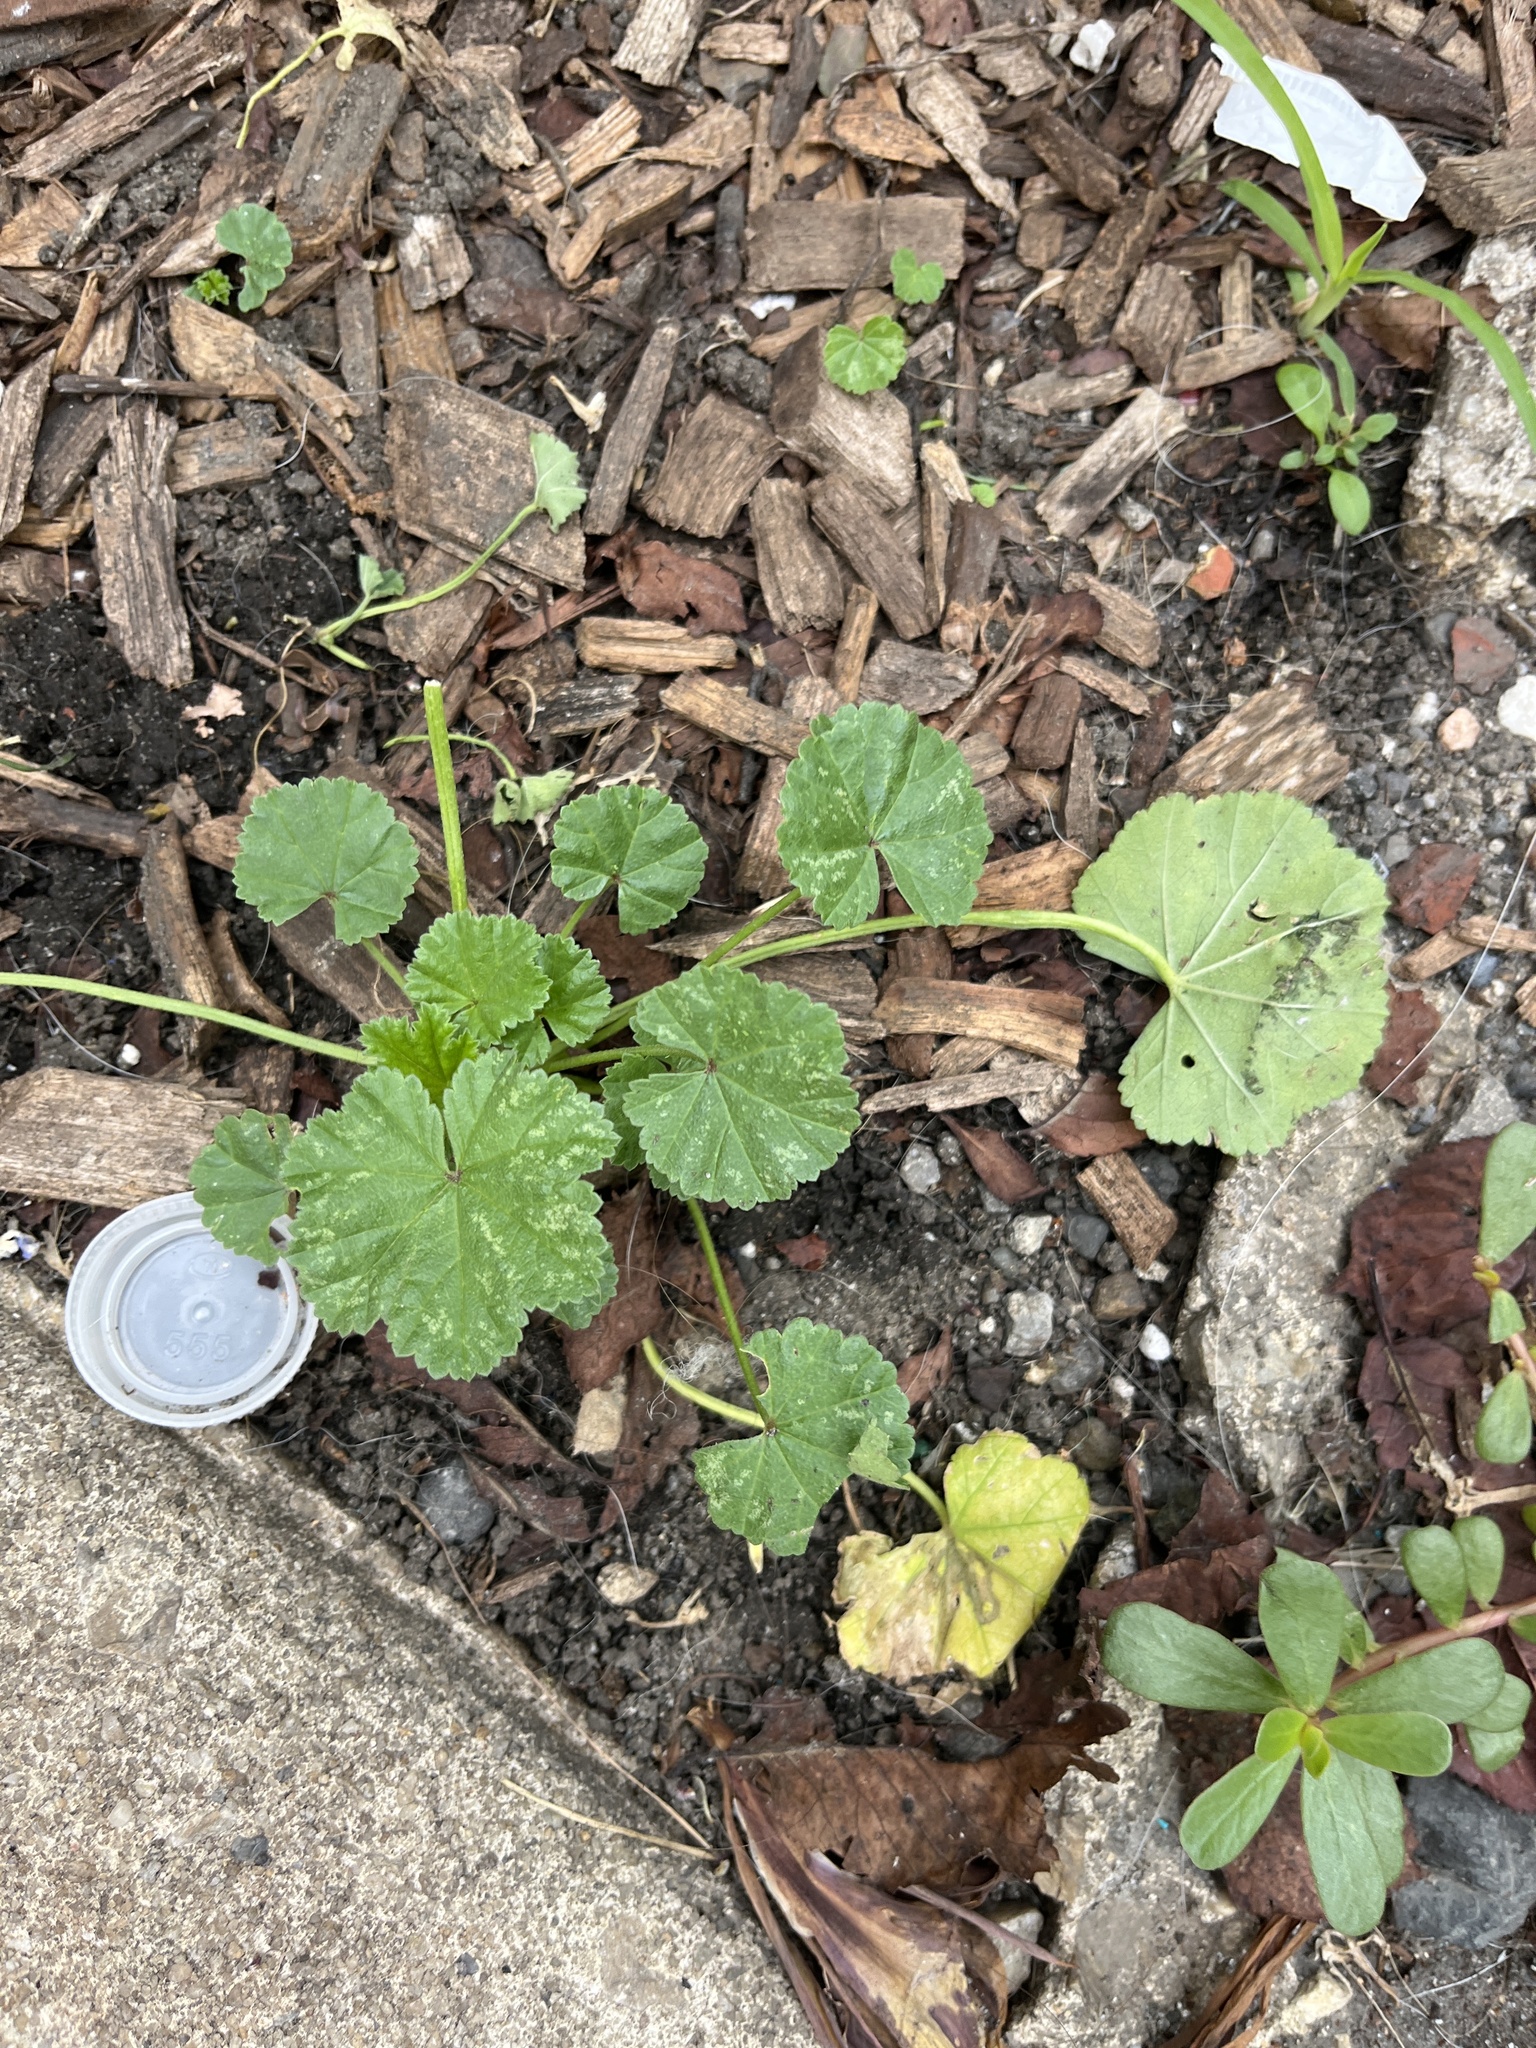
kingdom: Plantae
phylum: Tracheophyta
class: Magnoliopsida
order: Malvales
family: Malvaceae
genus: Malva
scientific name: Malva neglecta
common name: Common mallow
